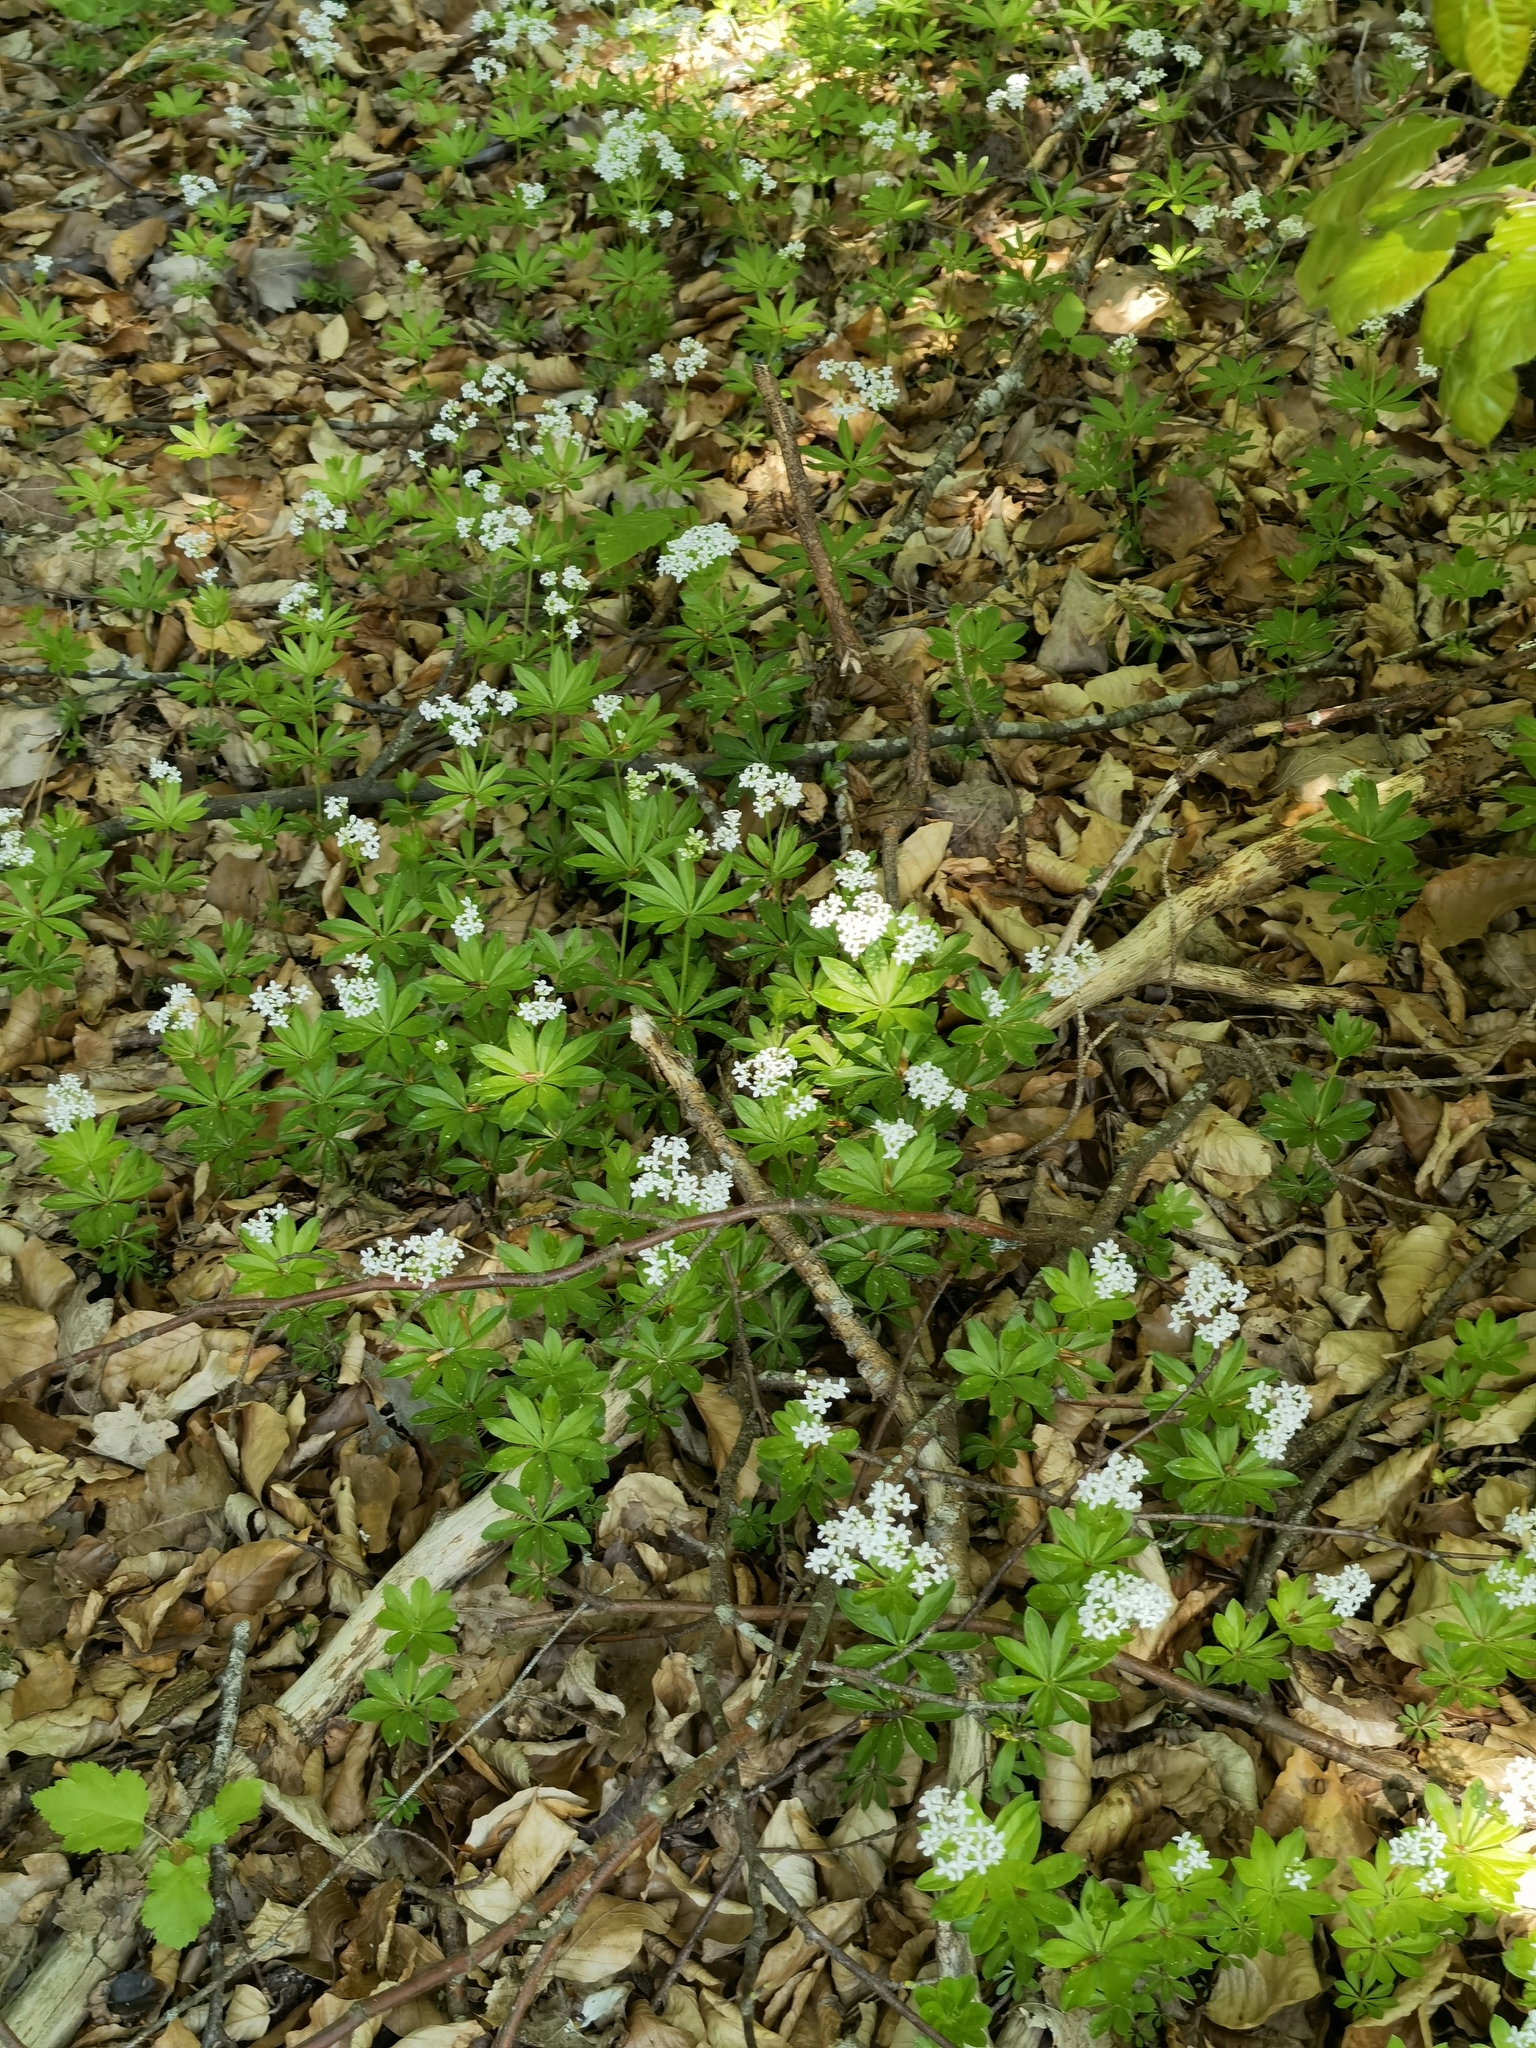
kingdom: Plantae
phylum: Tracheophyta
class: Magnoliopsida
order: Gentianales
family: Rubiaceae
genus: Galium
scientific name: Galium odoratum
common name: Sweet woodruff
